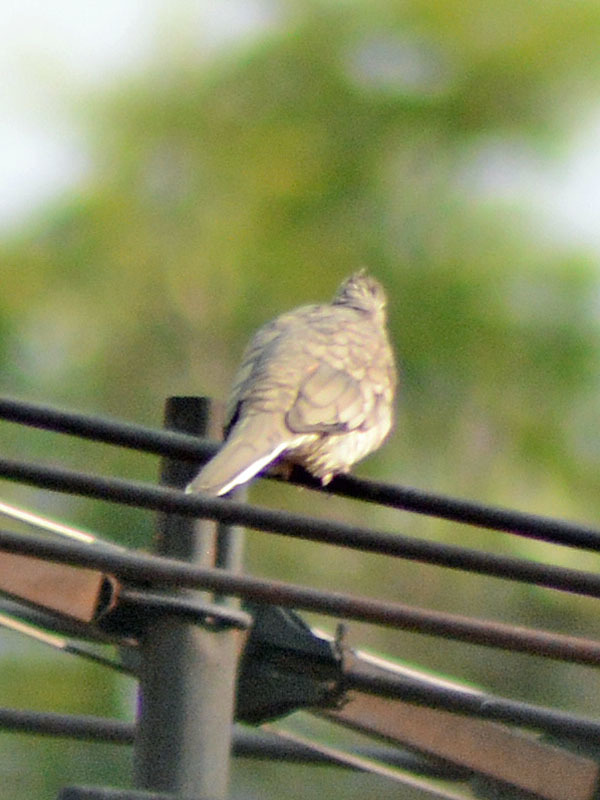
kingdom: Animalia
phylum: Chordata
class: Aves
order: Columbiformes
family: Columbidae
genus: Columbina
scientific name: Columbina inca
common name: Inca dove
